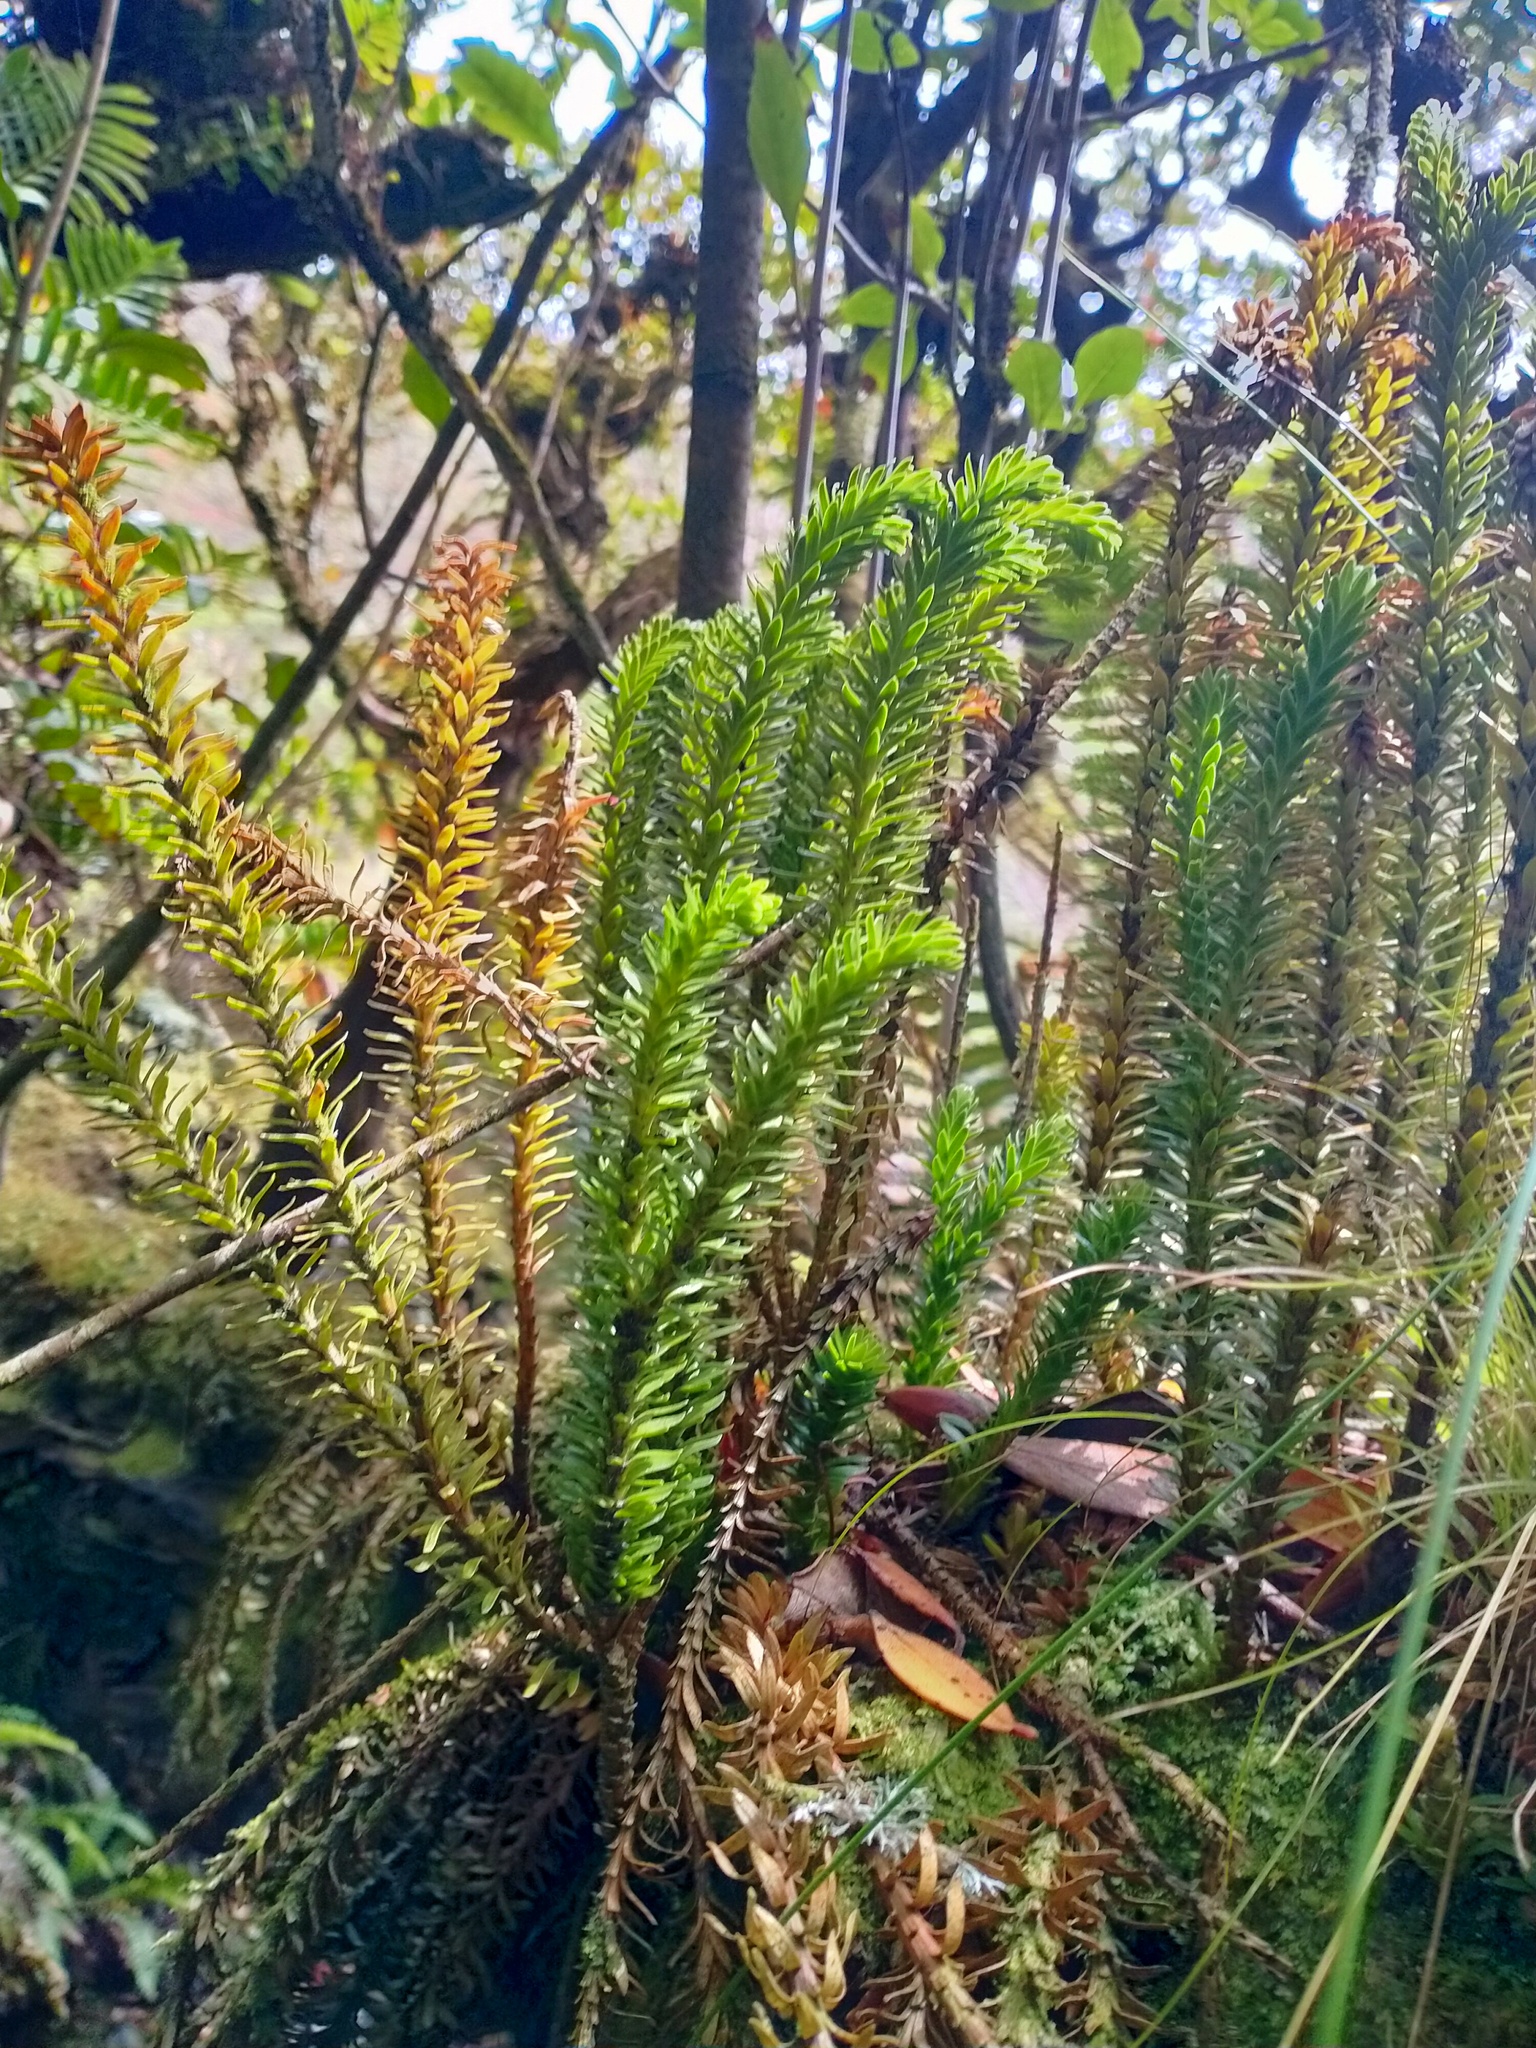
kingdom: Plantae
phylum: Tracheophyta
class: Lycopodiopsida
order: Lycopodiales
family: Lycopodiaceae
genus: Phlegmariurus
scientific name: Phlegmariurus varius
